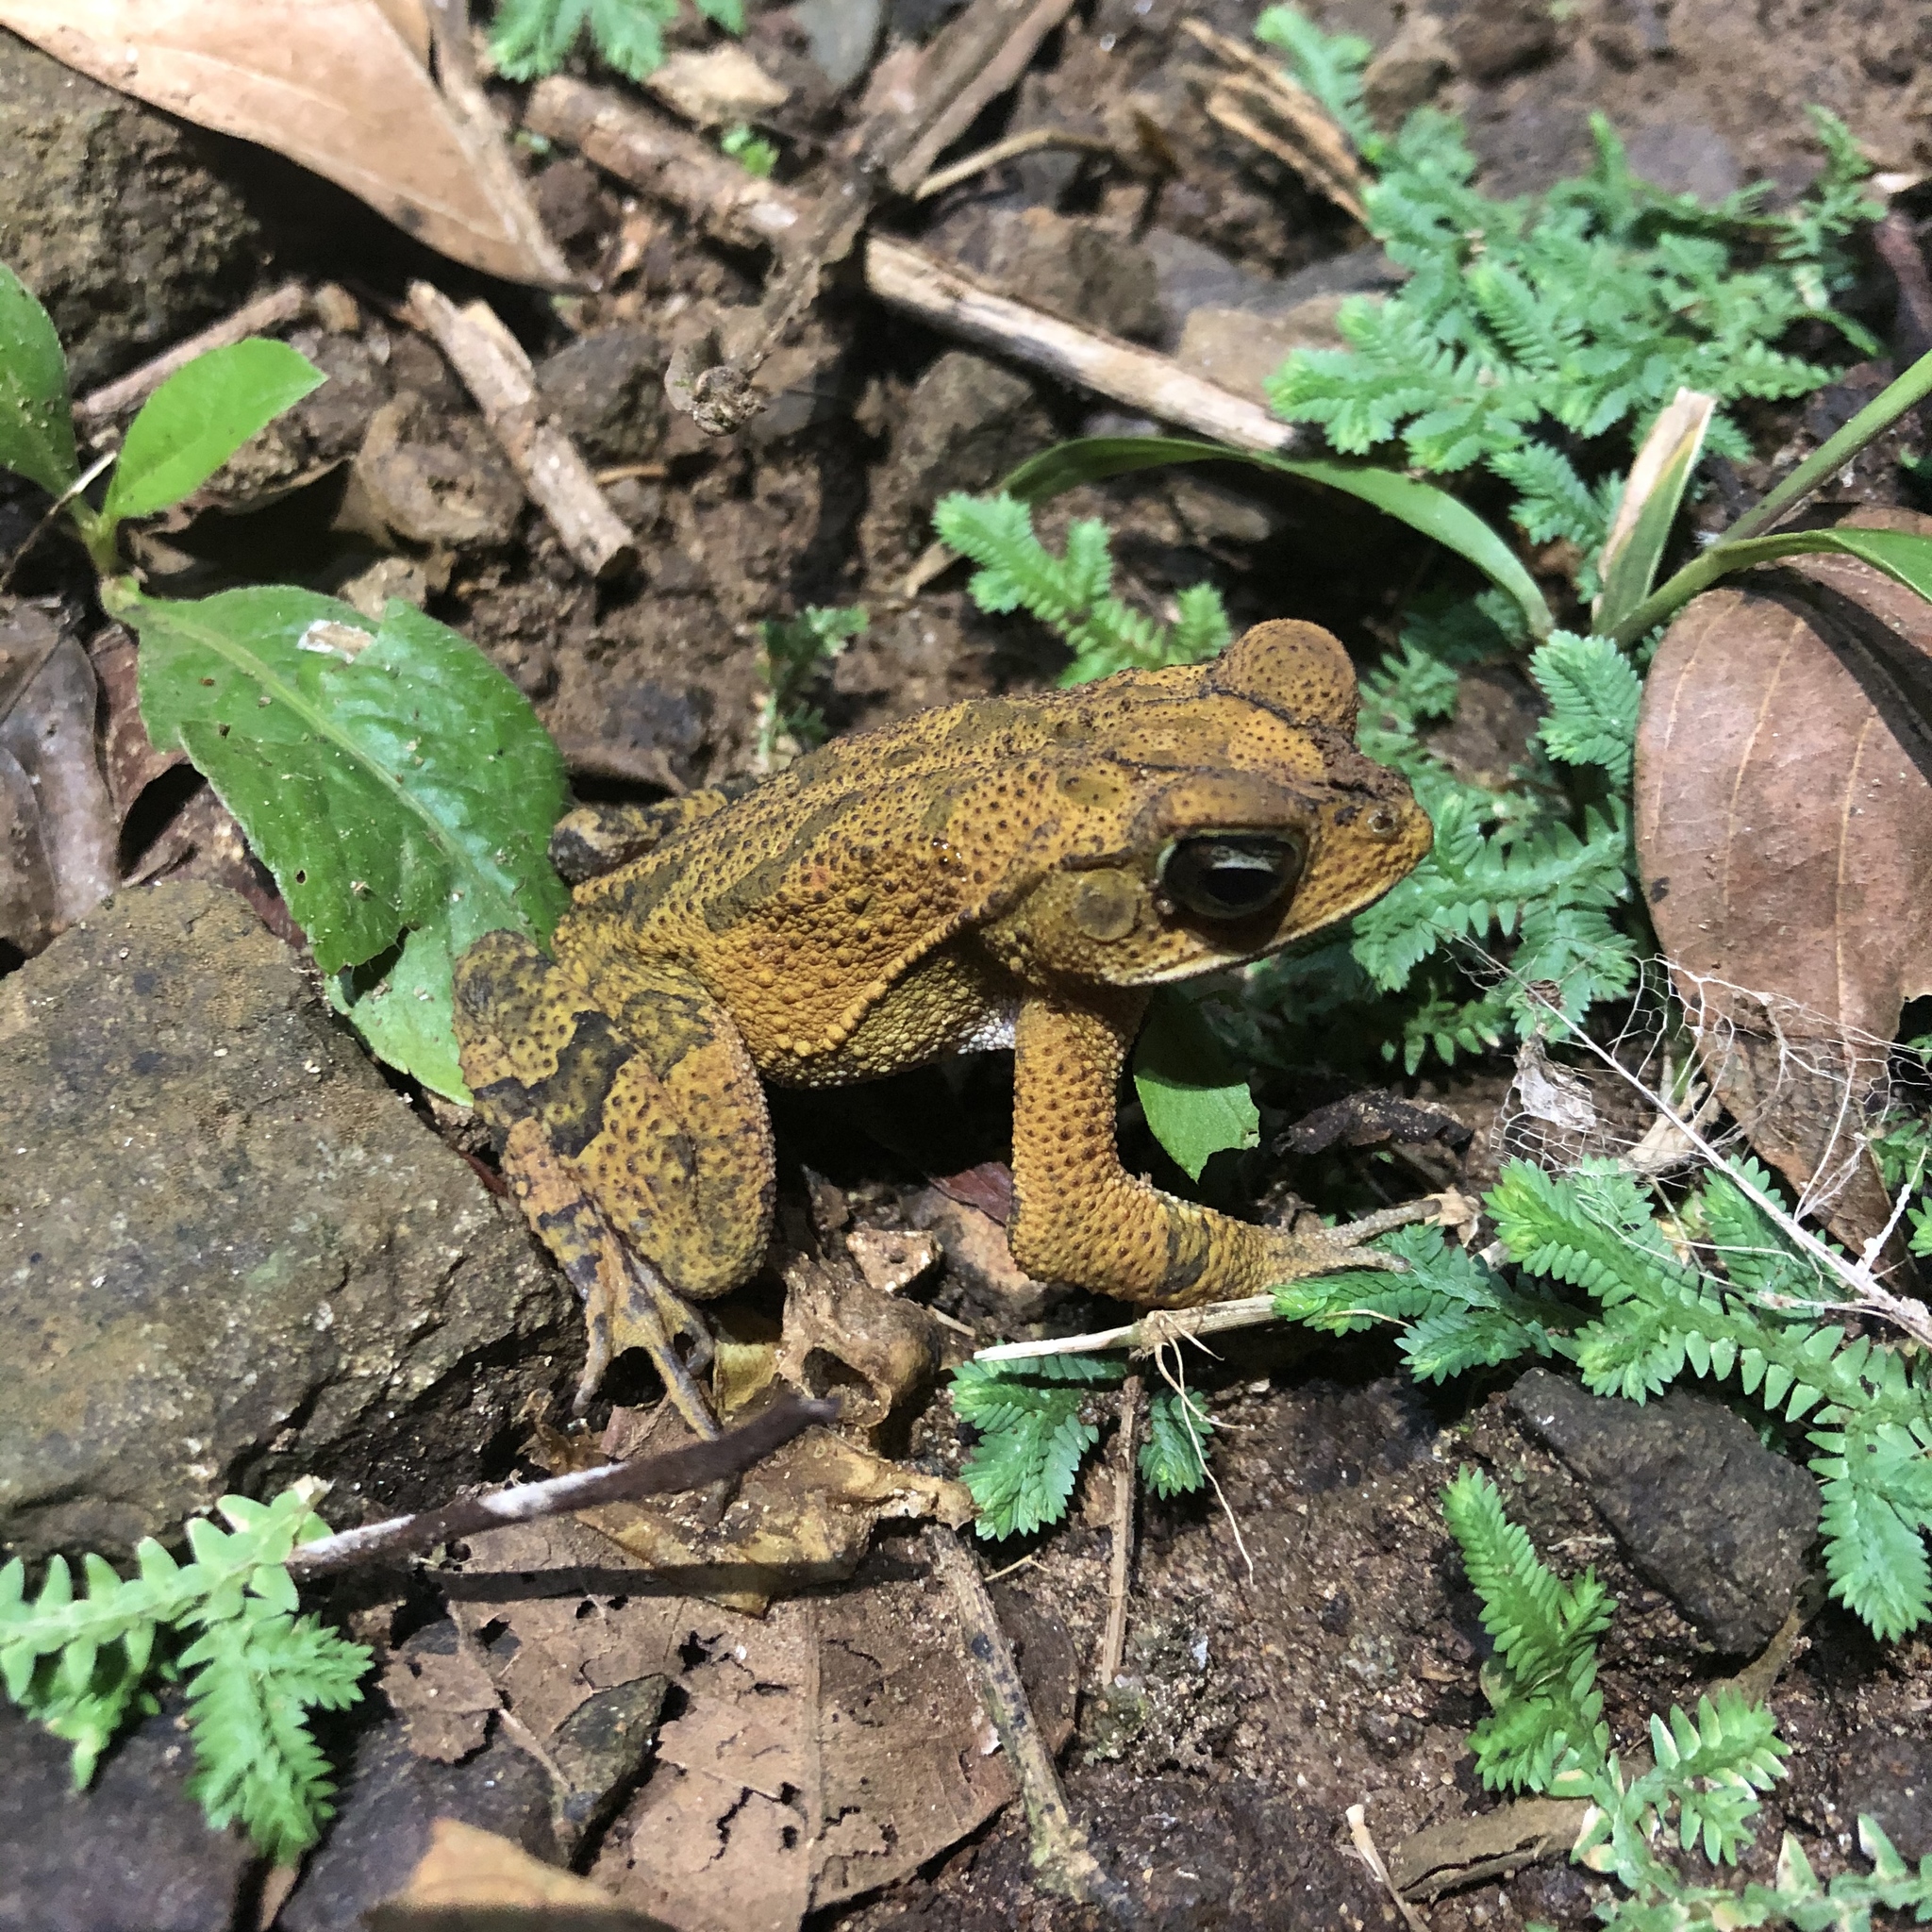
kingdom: Animalia
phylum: Chordata
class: Amphibia
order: Anura
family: Bufonidae
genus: Incilius
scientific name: Incilius aucoinae
